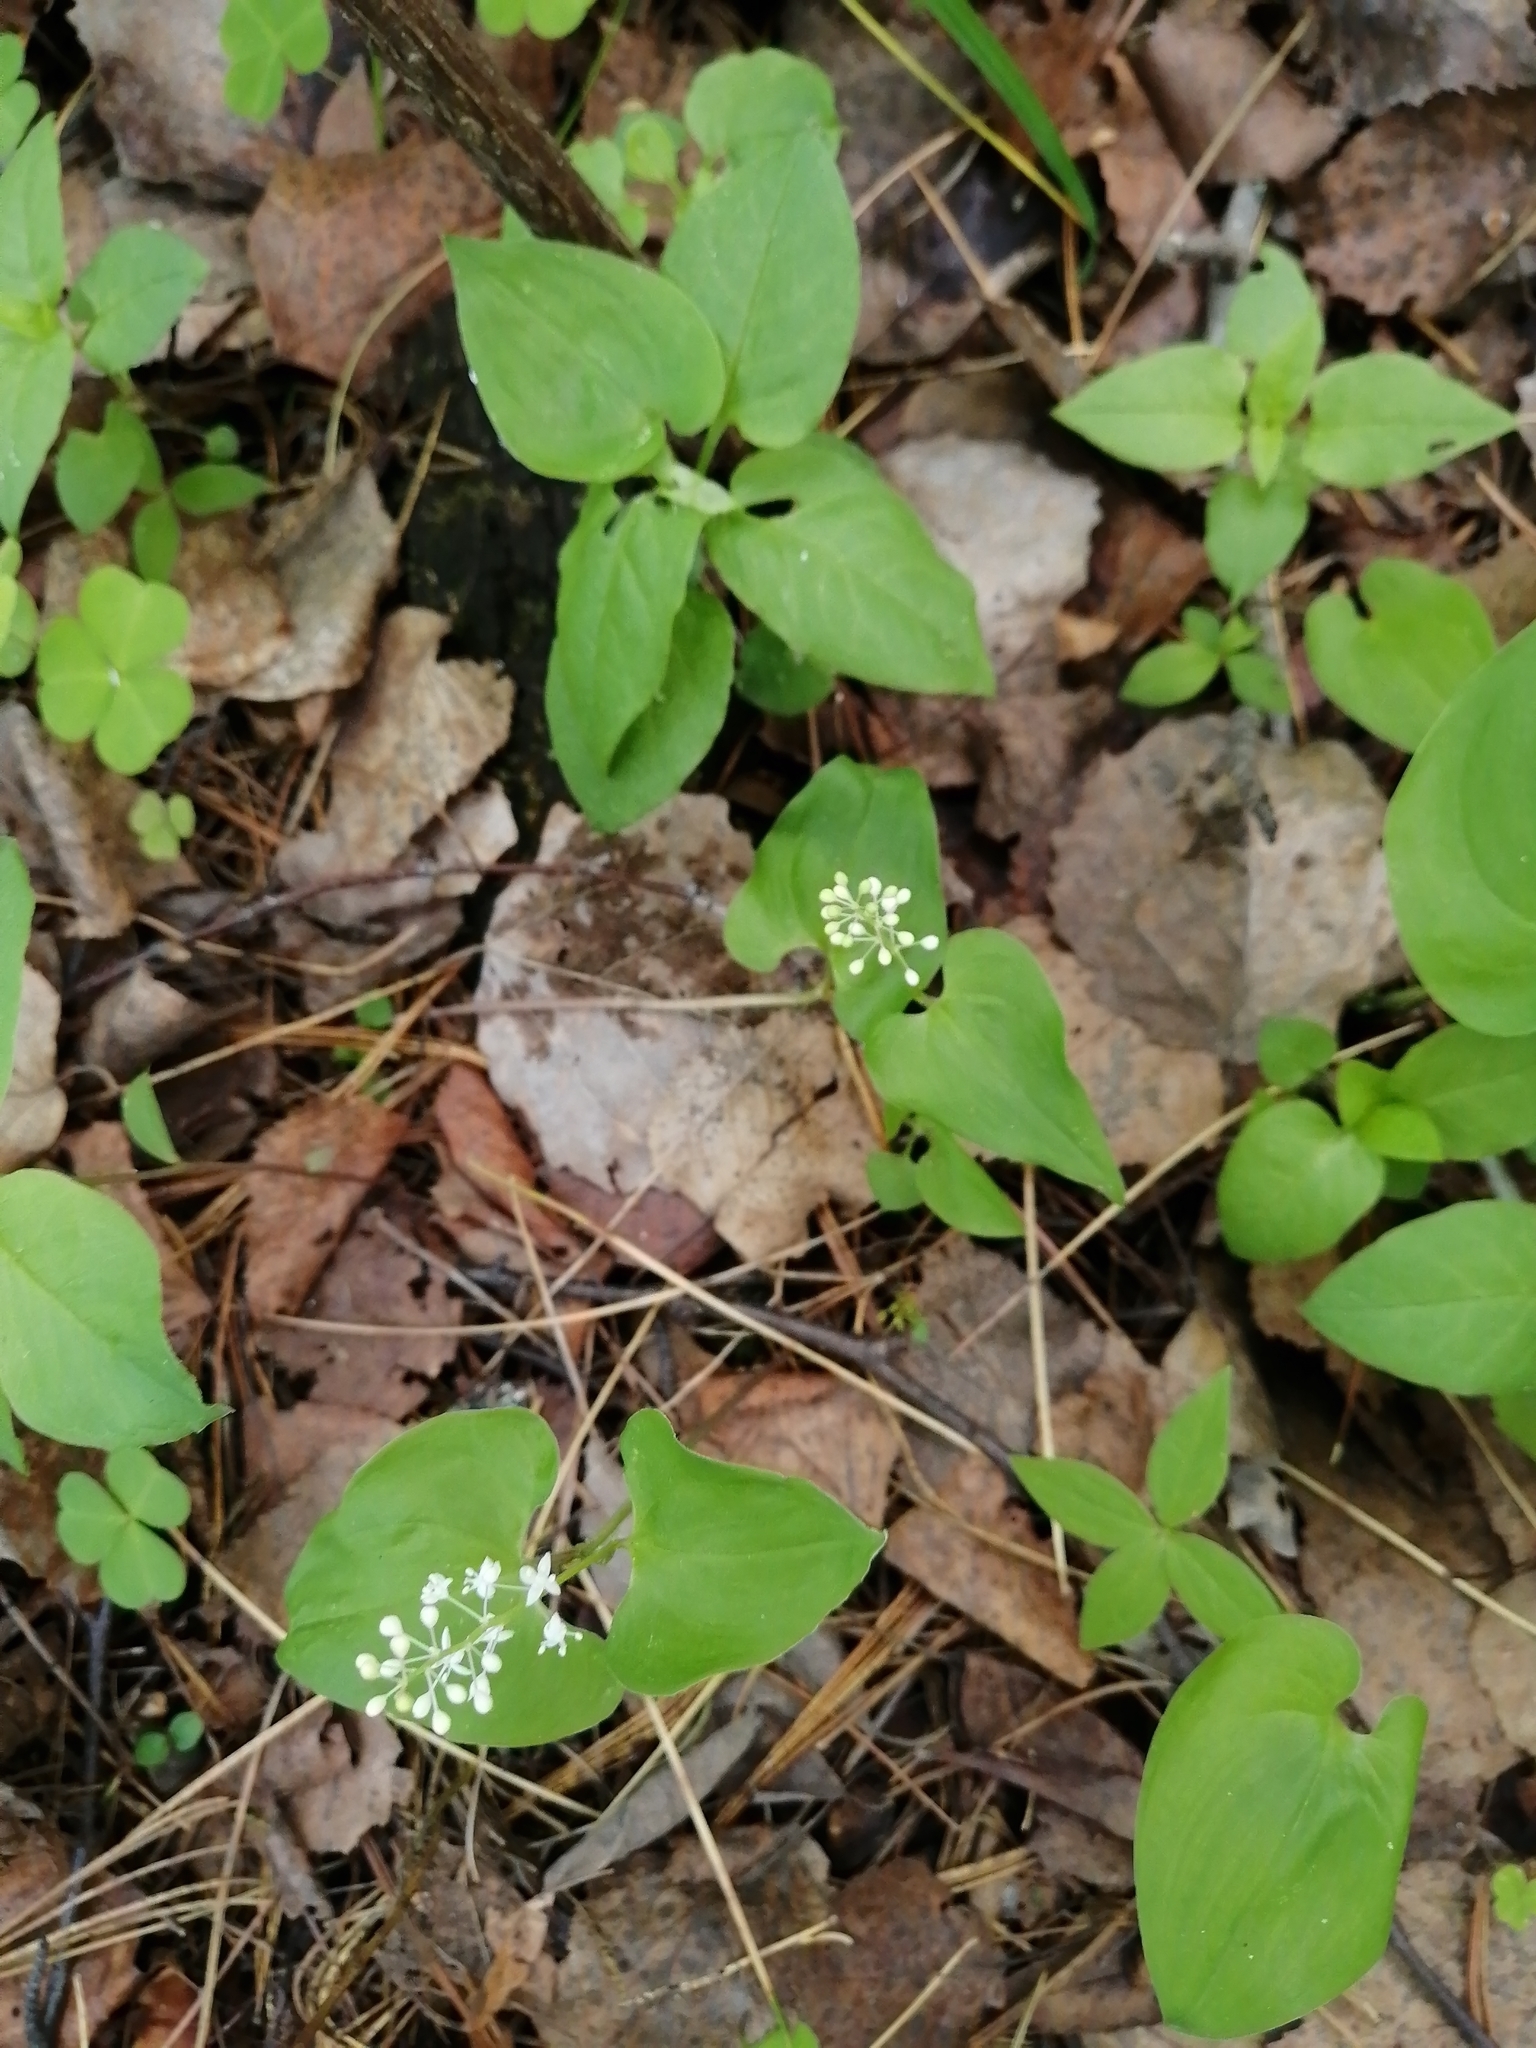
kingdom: Plantae
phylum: Tracheophyta
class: Liliopsida
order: Asparagales
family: Asparagaceae
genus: Maianthemum
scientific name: Maianthemum bifolium
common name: May lily
